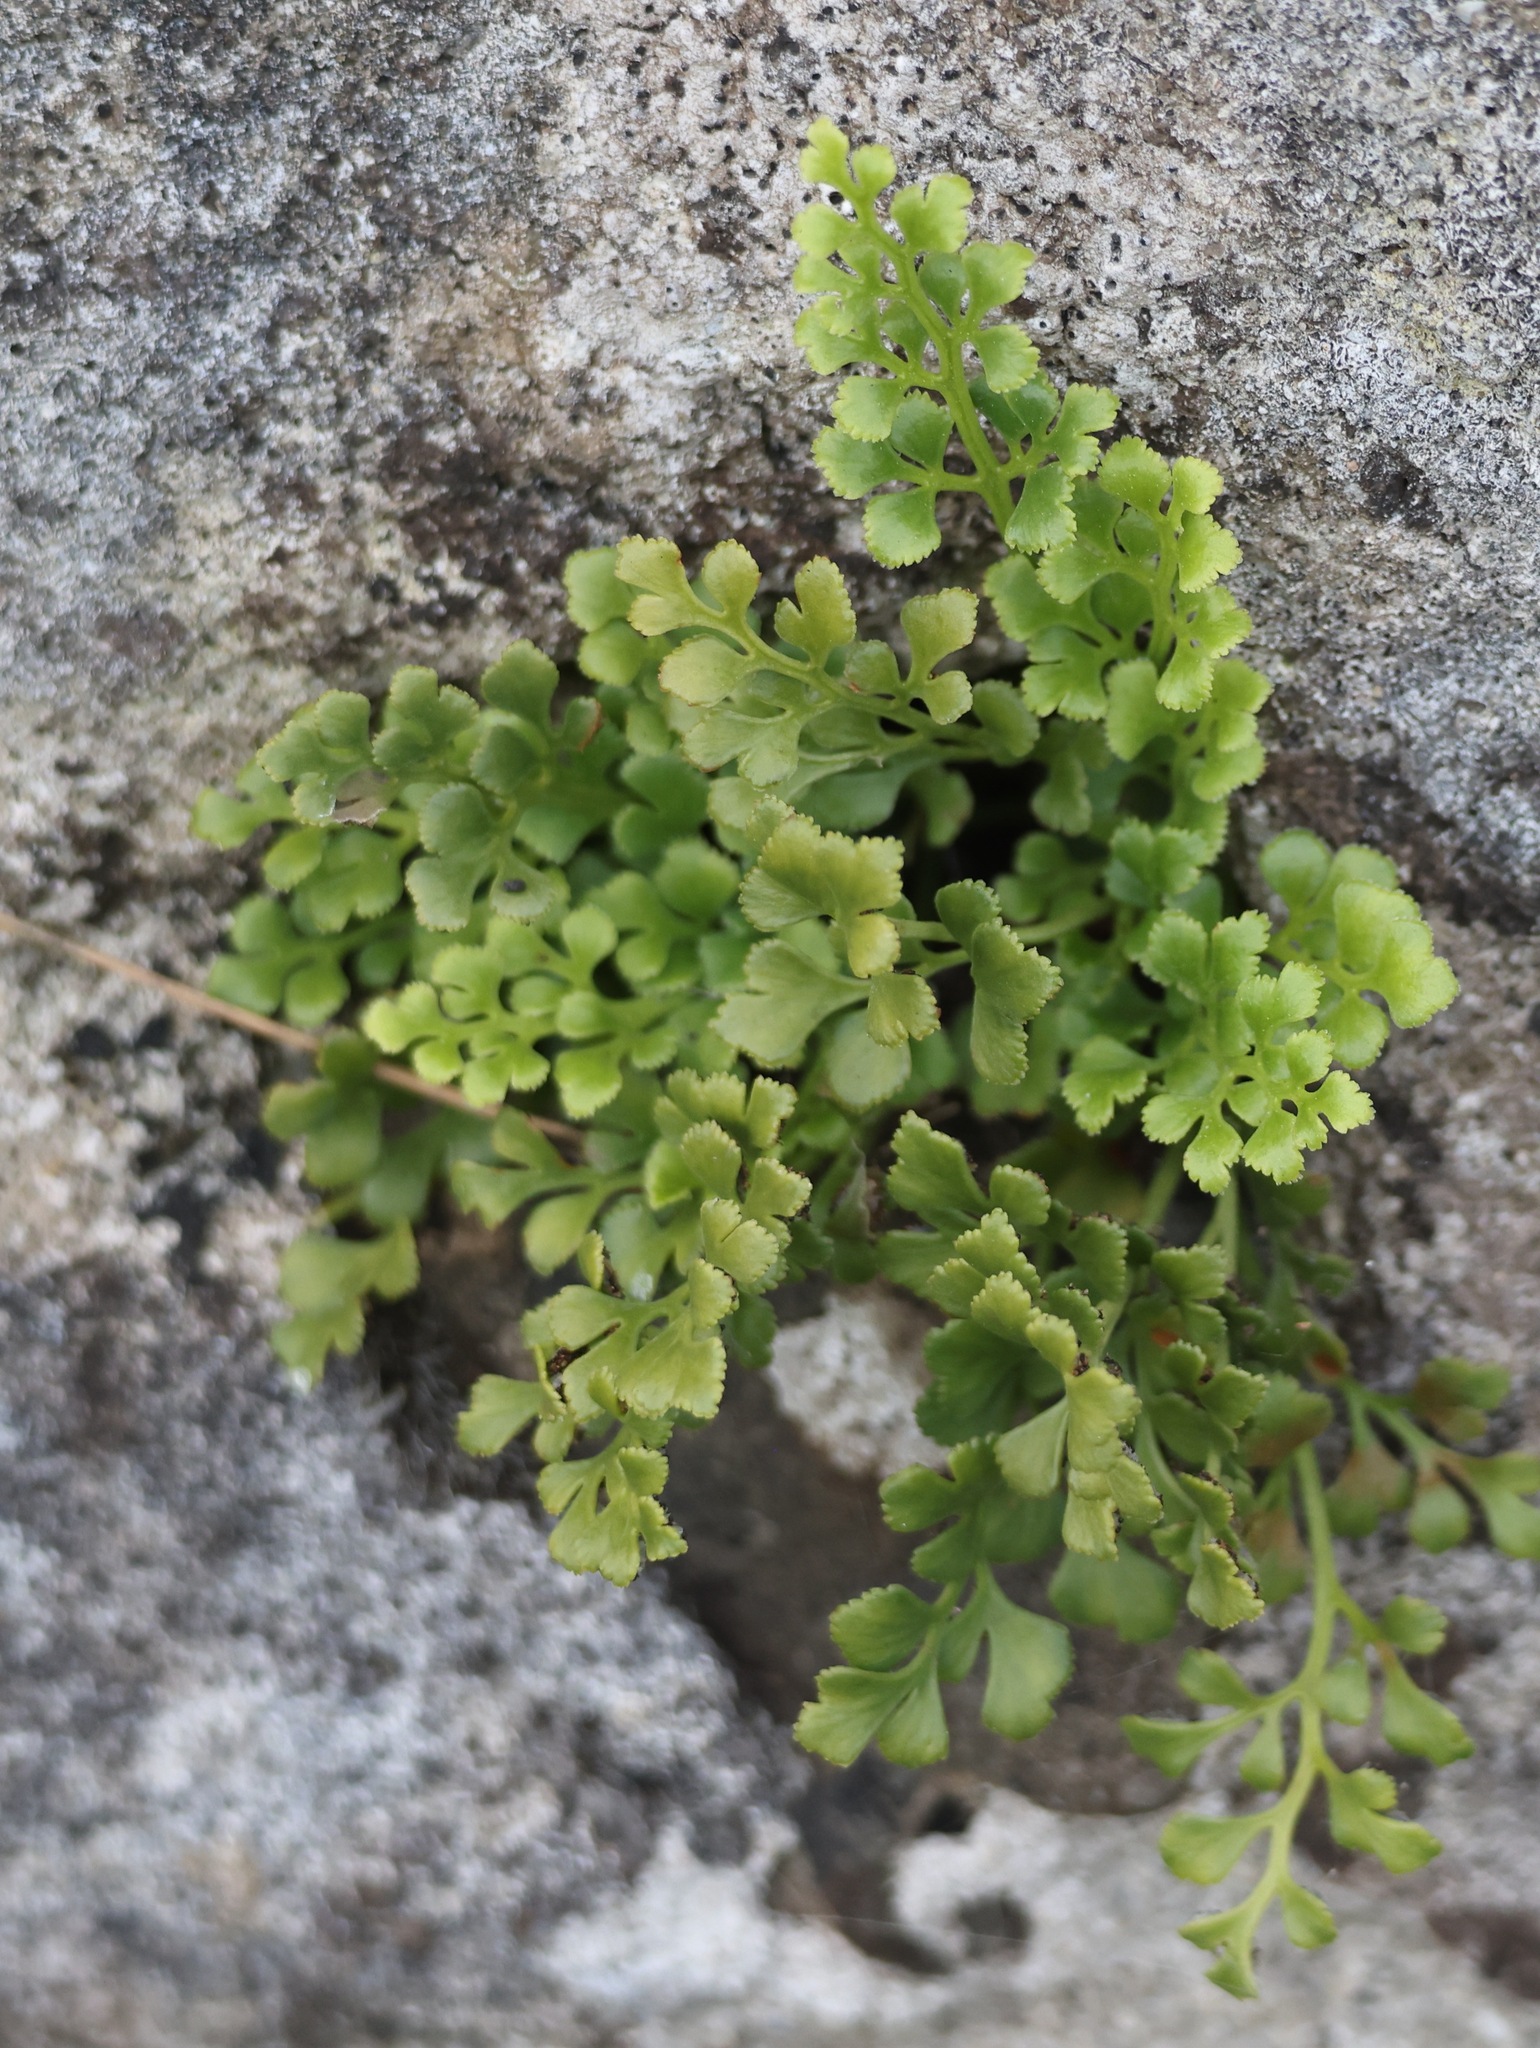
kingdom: Plantae
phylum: Tracheophyta
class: Polypodiopsida
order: Polypodiales
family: Aspleniaceae
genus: Asplenium
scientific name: Asplenium ruta-muraria
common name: Wall-rue
